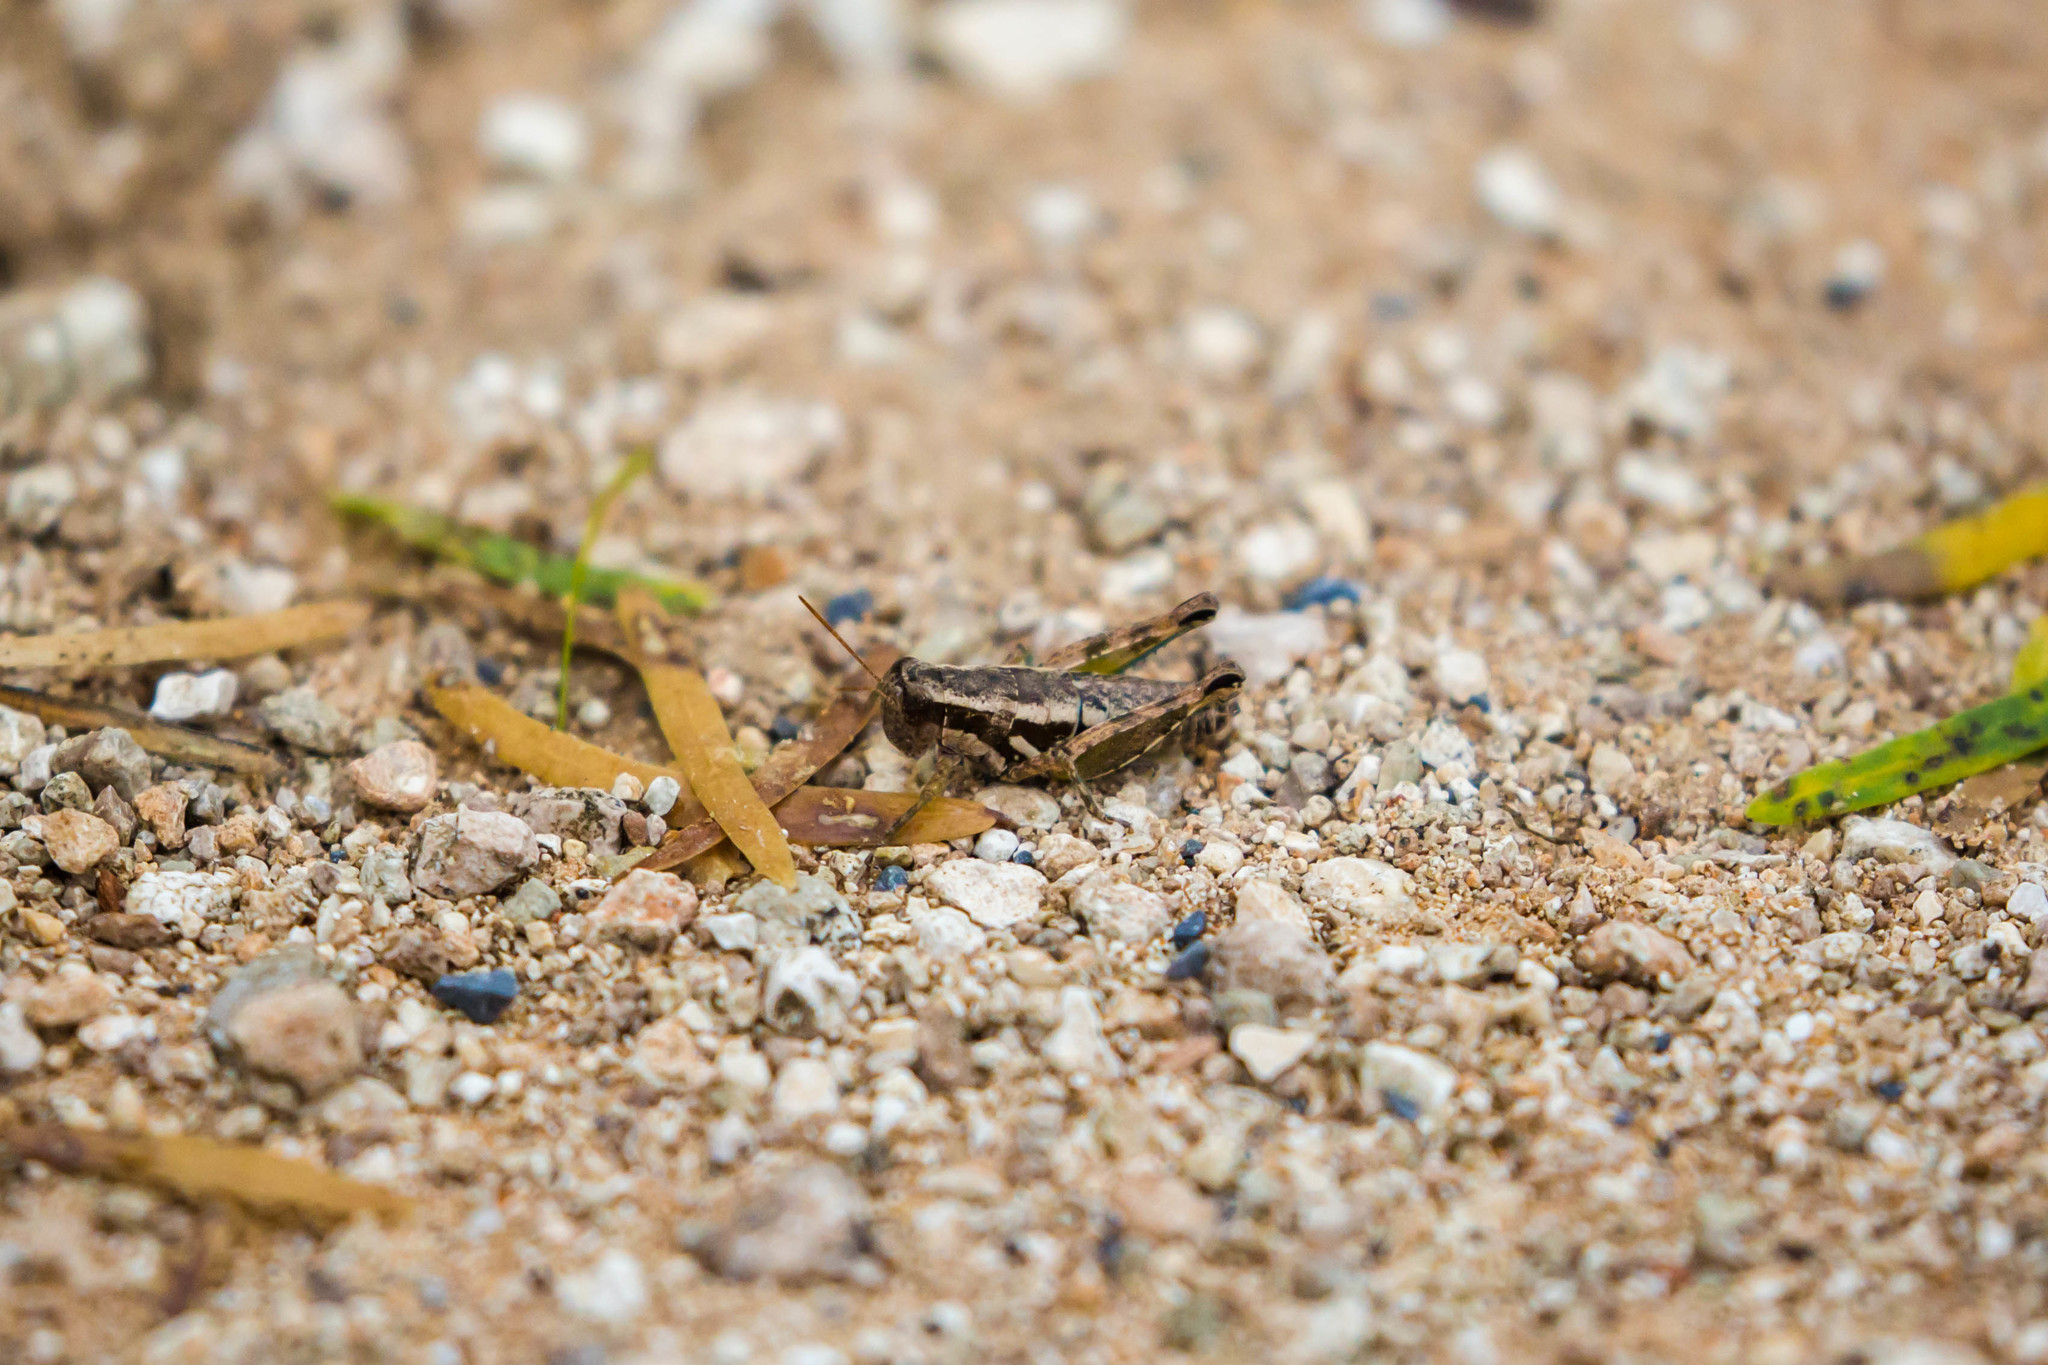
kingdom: Animalia
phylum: Arthropoda
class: Insecta
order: Orthoptera
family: Acrididae
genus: Paraidemona
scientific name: Paraidemona
